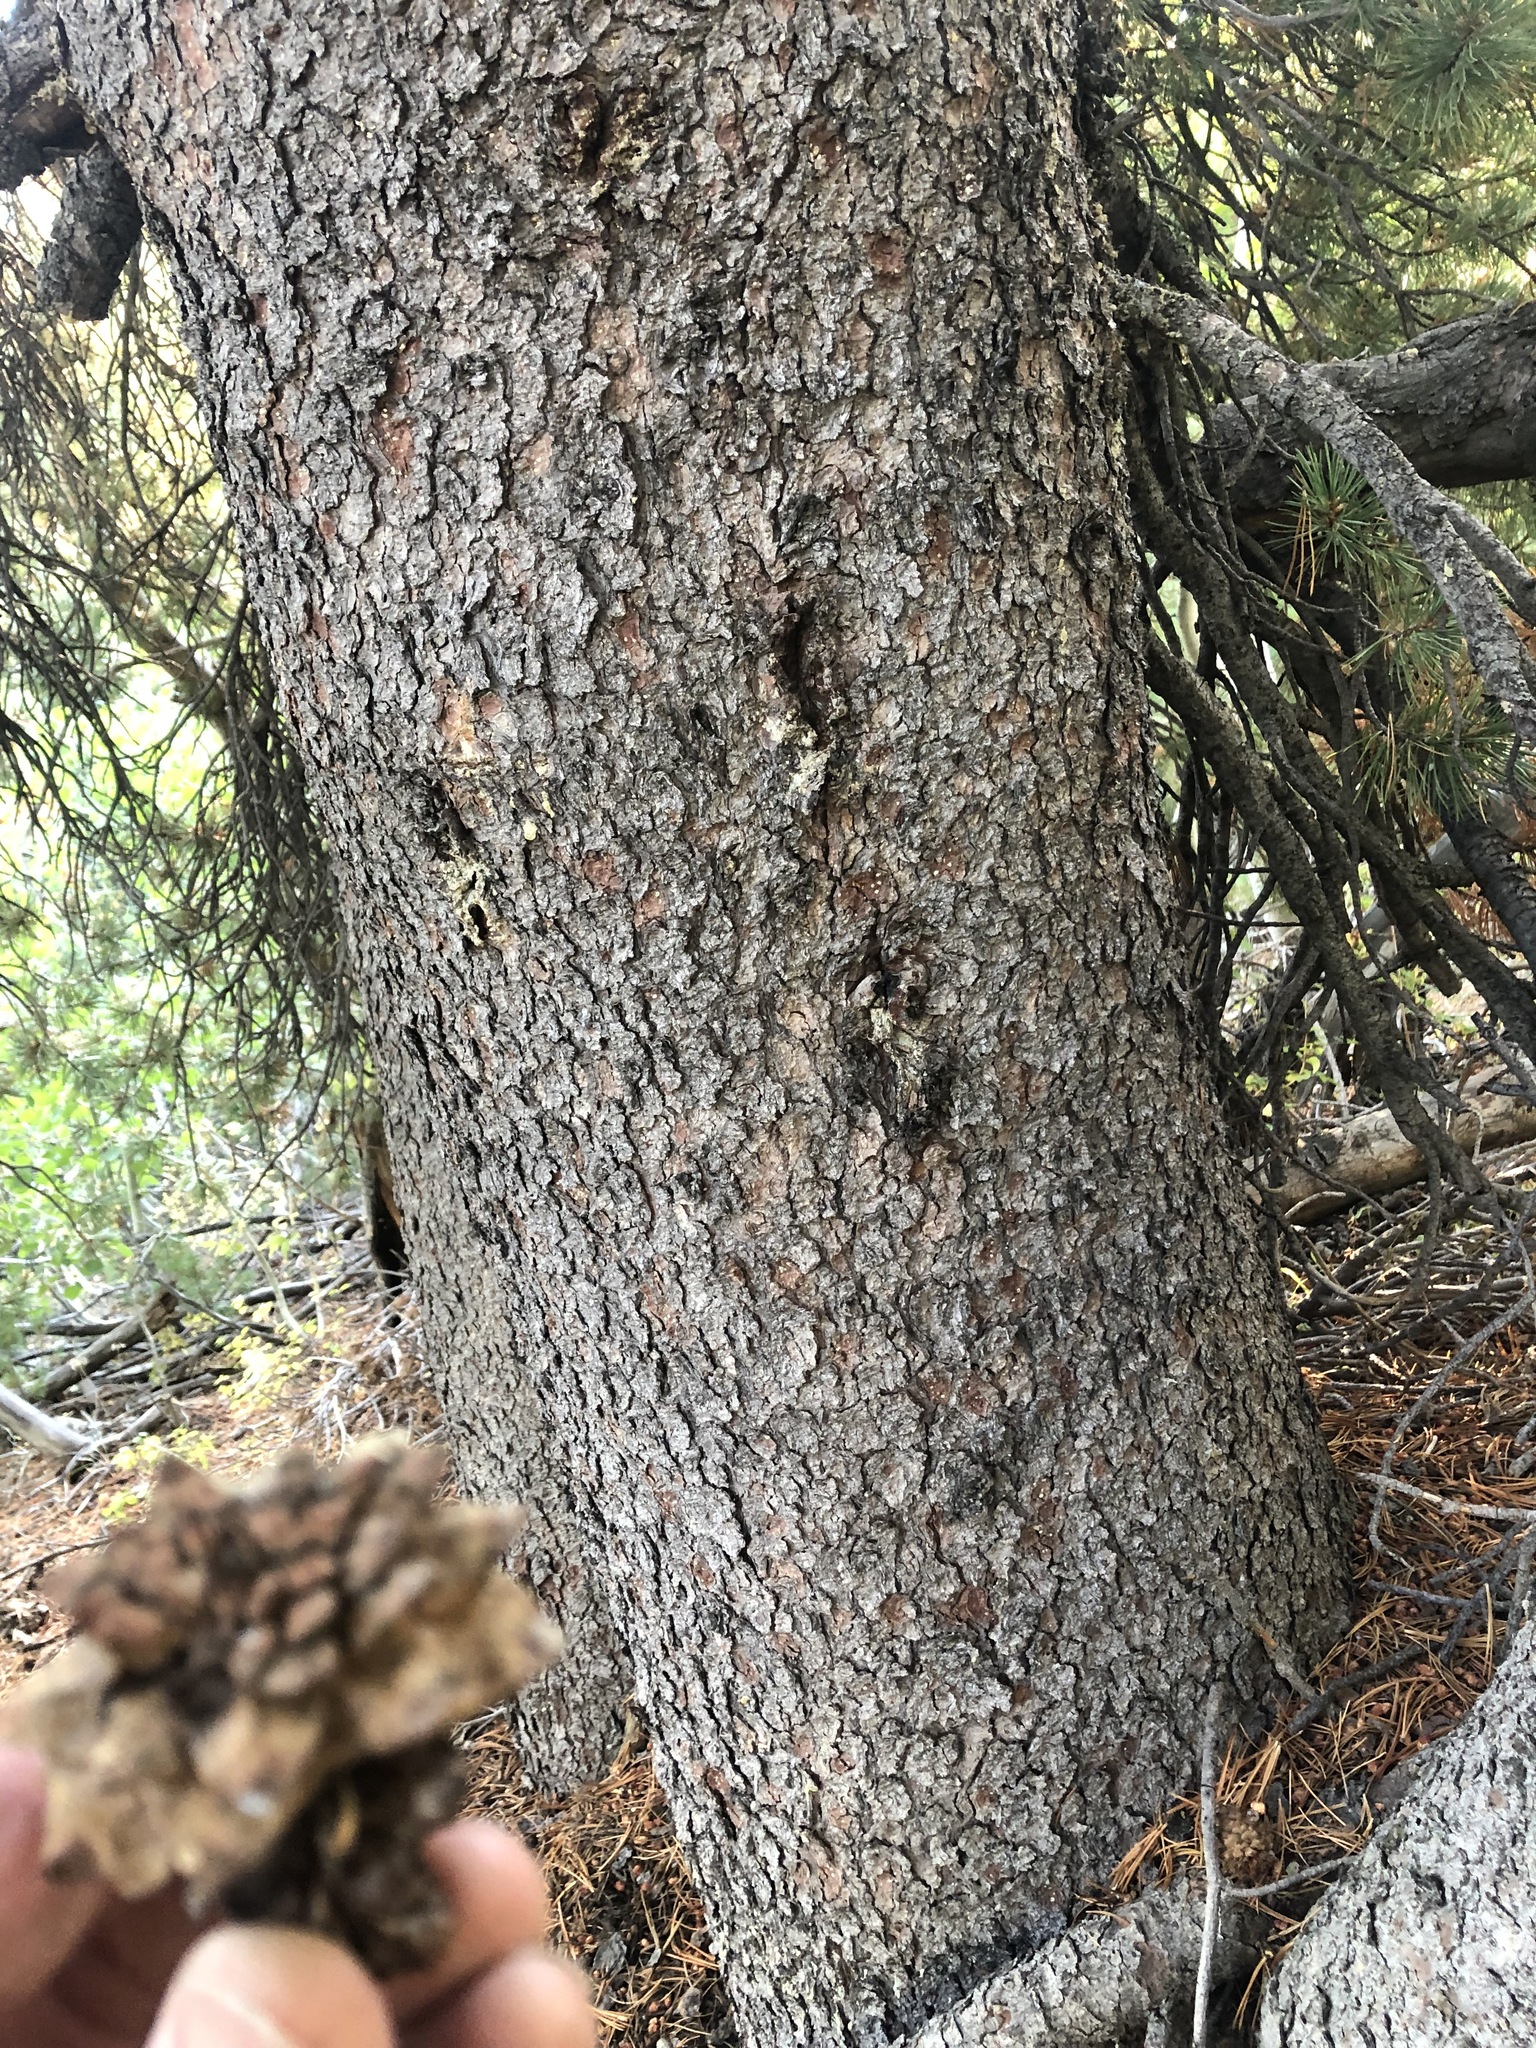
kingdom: Plantae
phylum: Tracheophyta
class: Pinopsida
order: Pinales
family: Pinaceae
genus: Pinus
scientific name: Pinus albicaulis
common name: Whitebark pine
